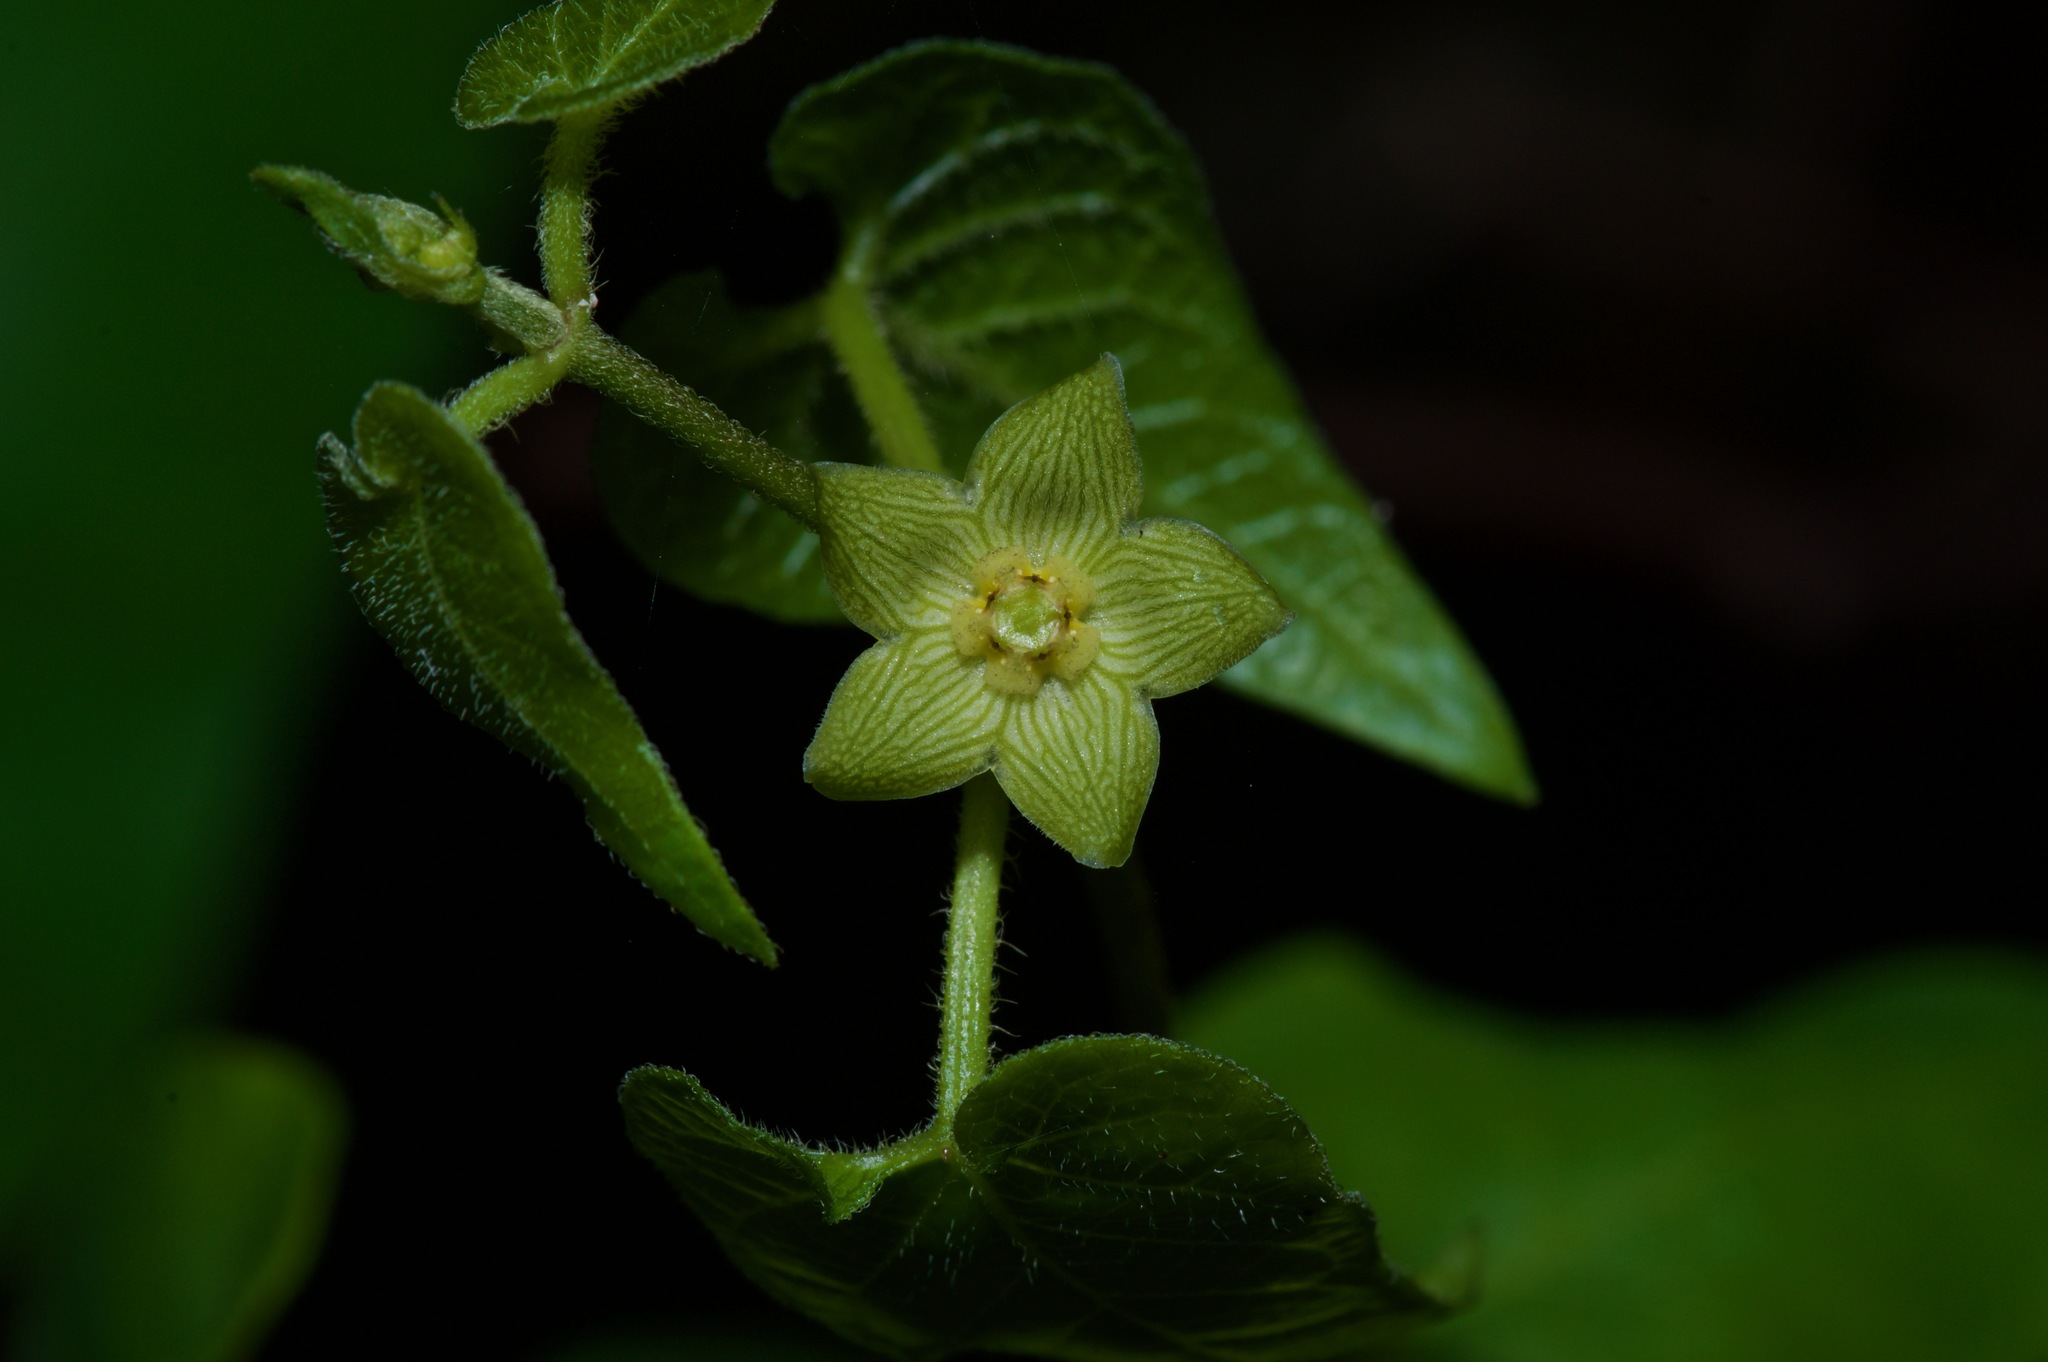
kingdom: Plantae
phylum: Tracheophyta
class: Magnoliopsida
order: Gentianales
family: Apocynaceae
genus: Matelea
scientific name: Matelea edwardsensis
